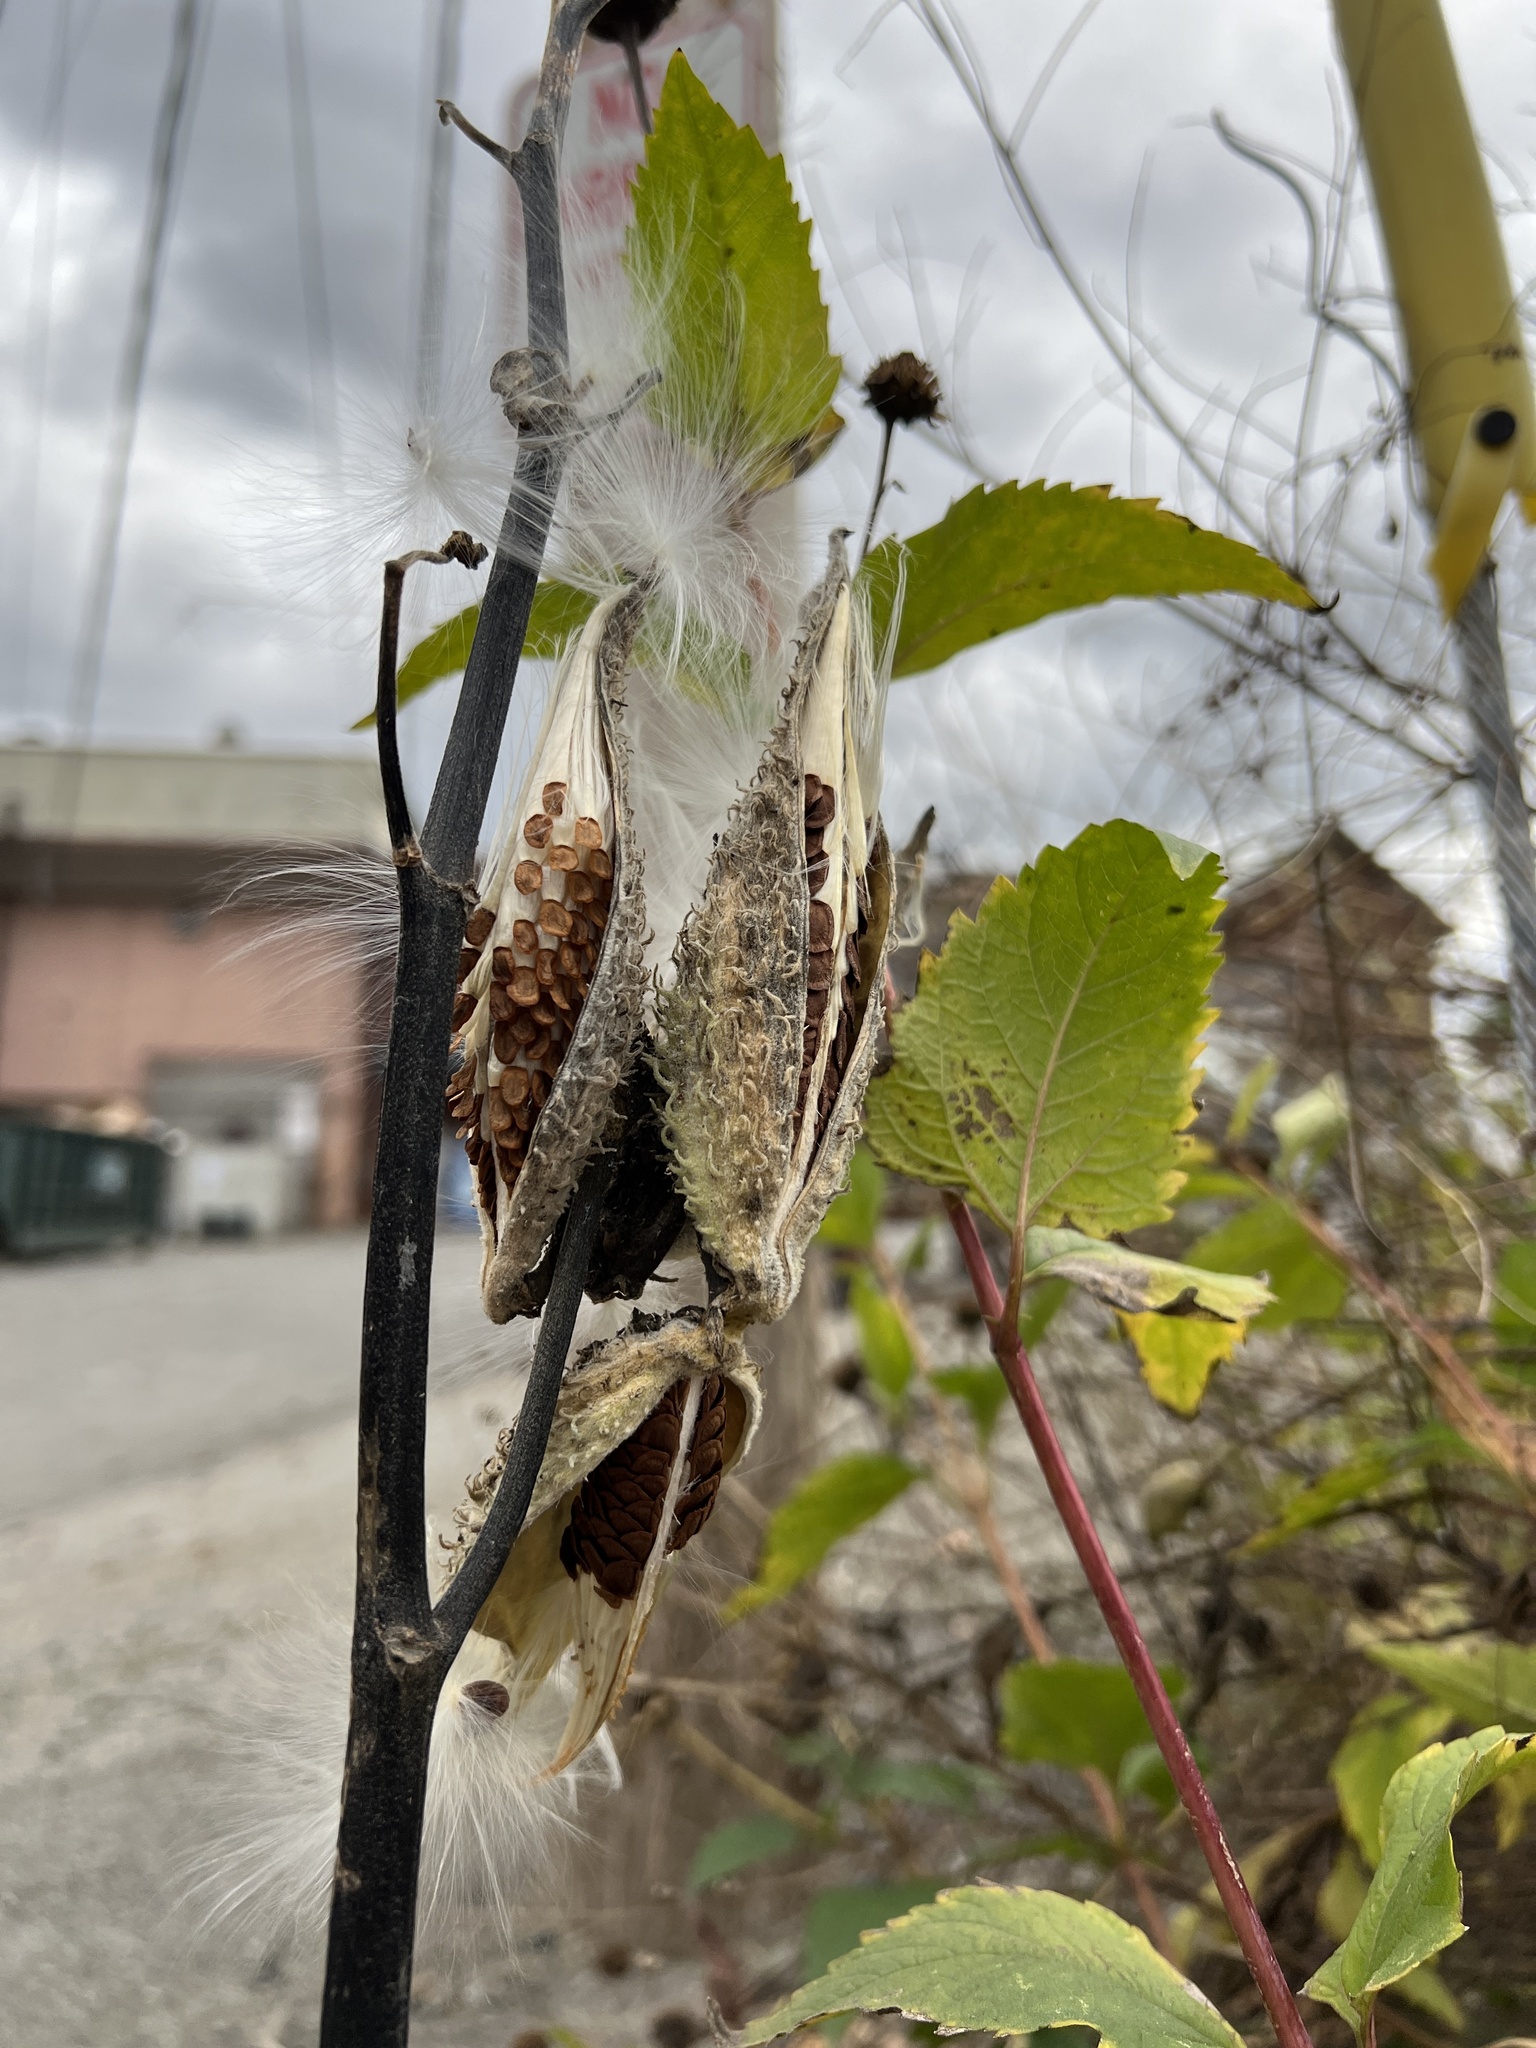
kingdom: Plantae
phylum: Tracheophyta
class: Magnoliopsida
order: Gentianales
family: Apocynaceae
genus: Asclepias
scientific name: Asclepias syriaca
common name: Common milkweed
